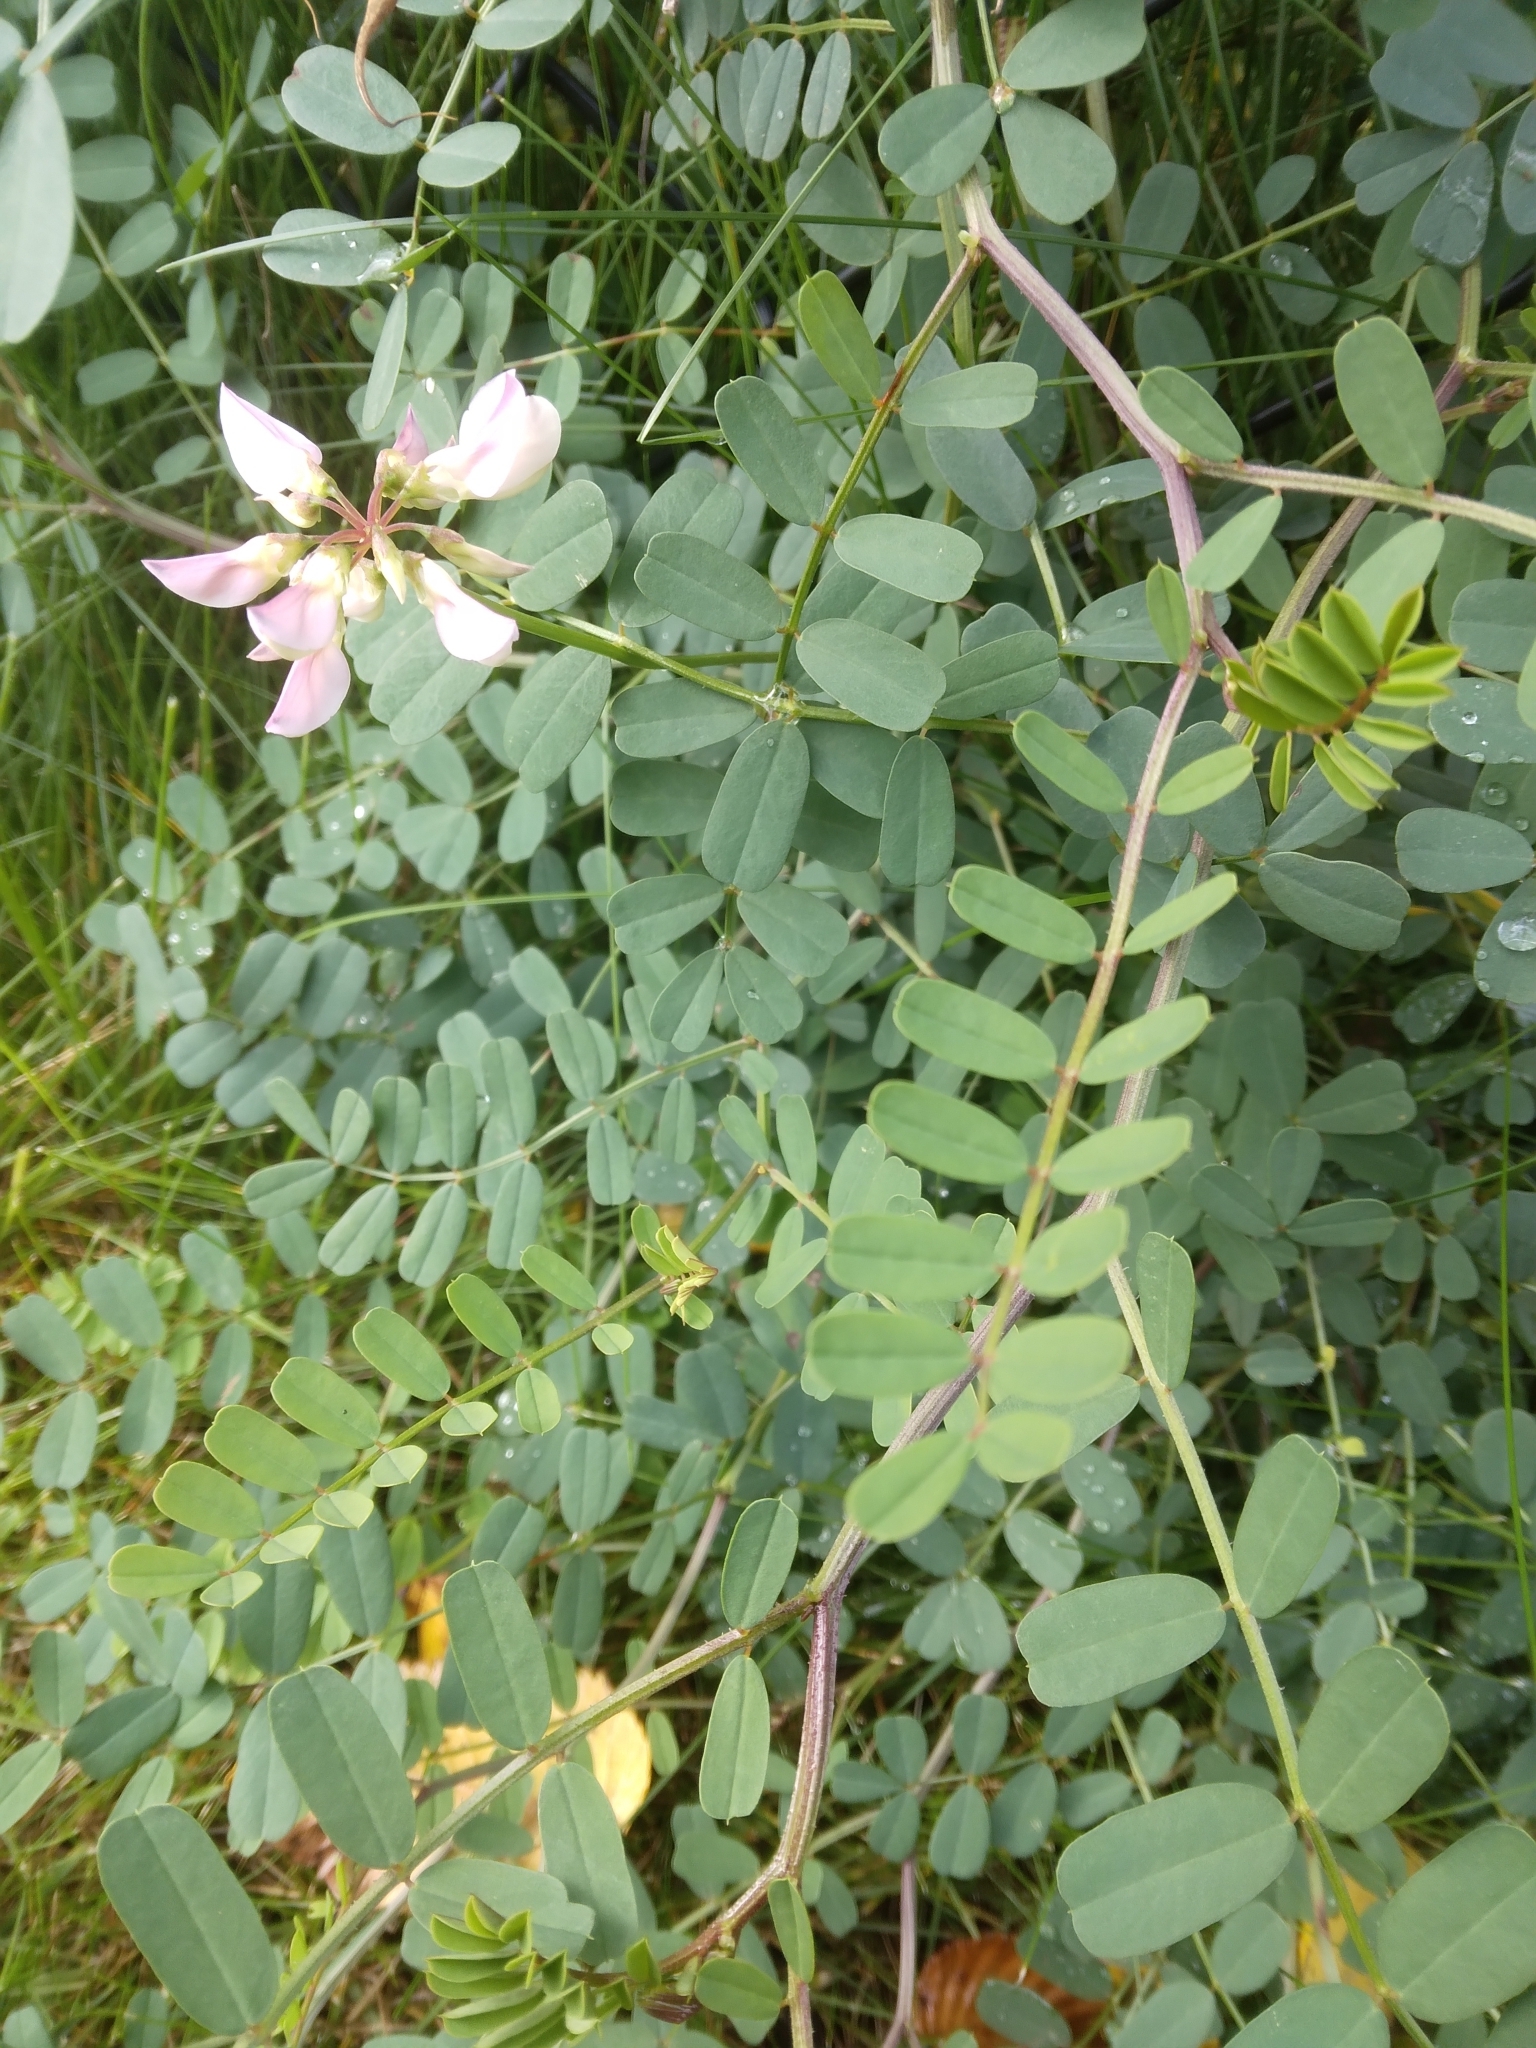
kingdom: Plantae
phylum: Tracheophyta
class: Magnoliopsida
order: Fabales
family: Fabaceae
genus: Coronilla
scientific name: Coronilla varia
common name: Crownvetch
